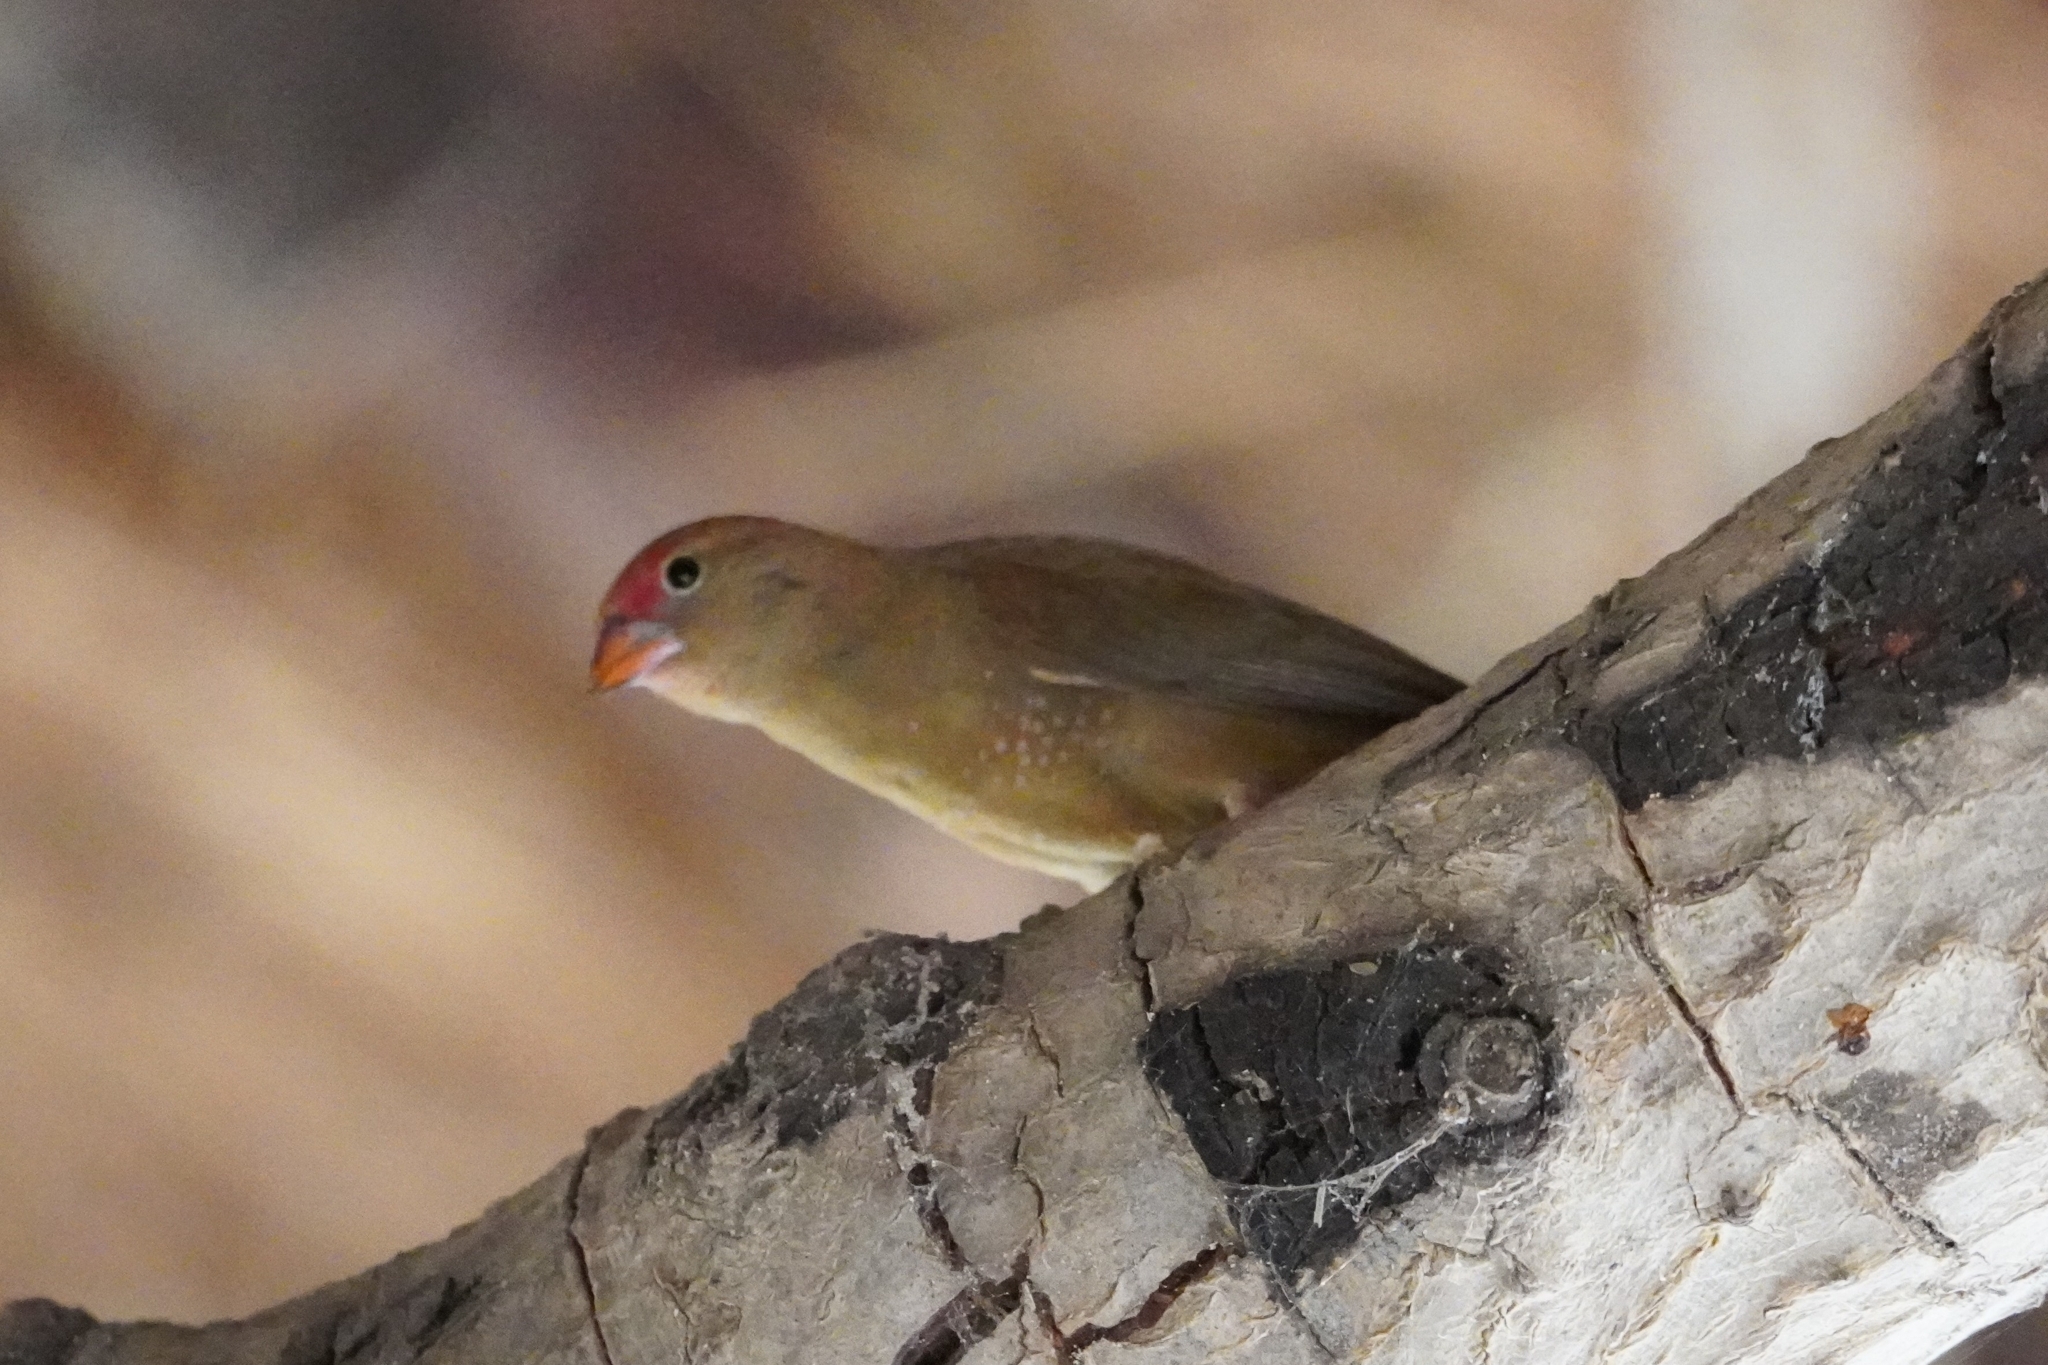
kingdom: Animalia
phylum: Chordata
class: Aves
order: Passeriformes
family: Estrildidae
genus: Lagonosticta
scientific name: Lagonosticta senegala
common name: Red-billed firefinch
